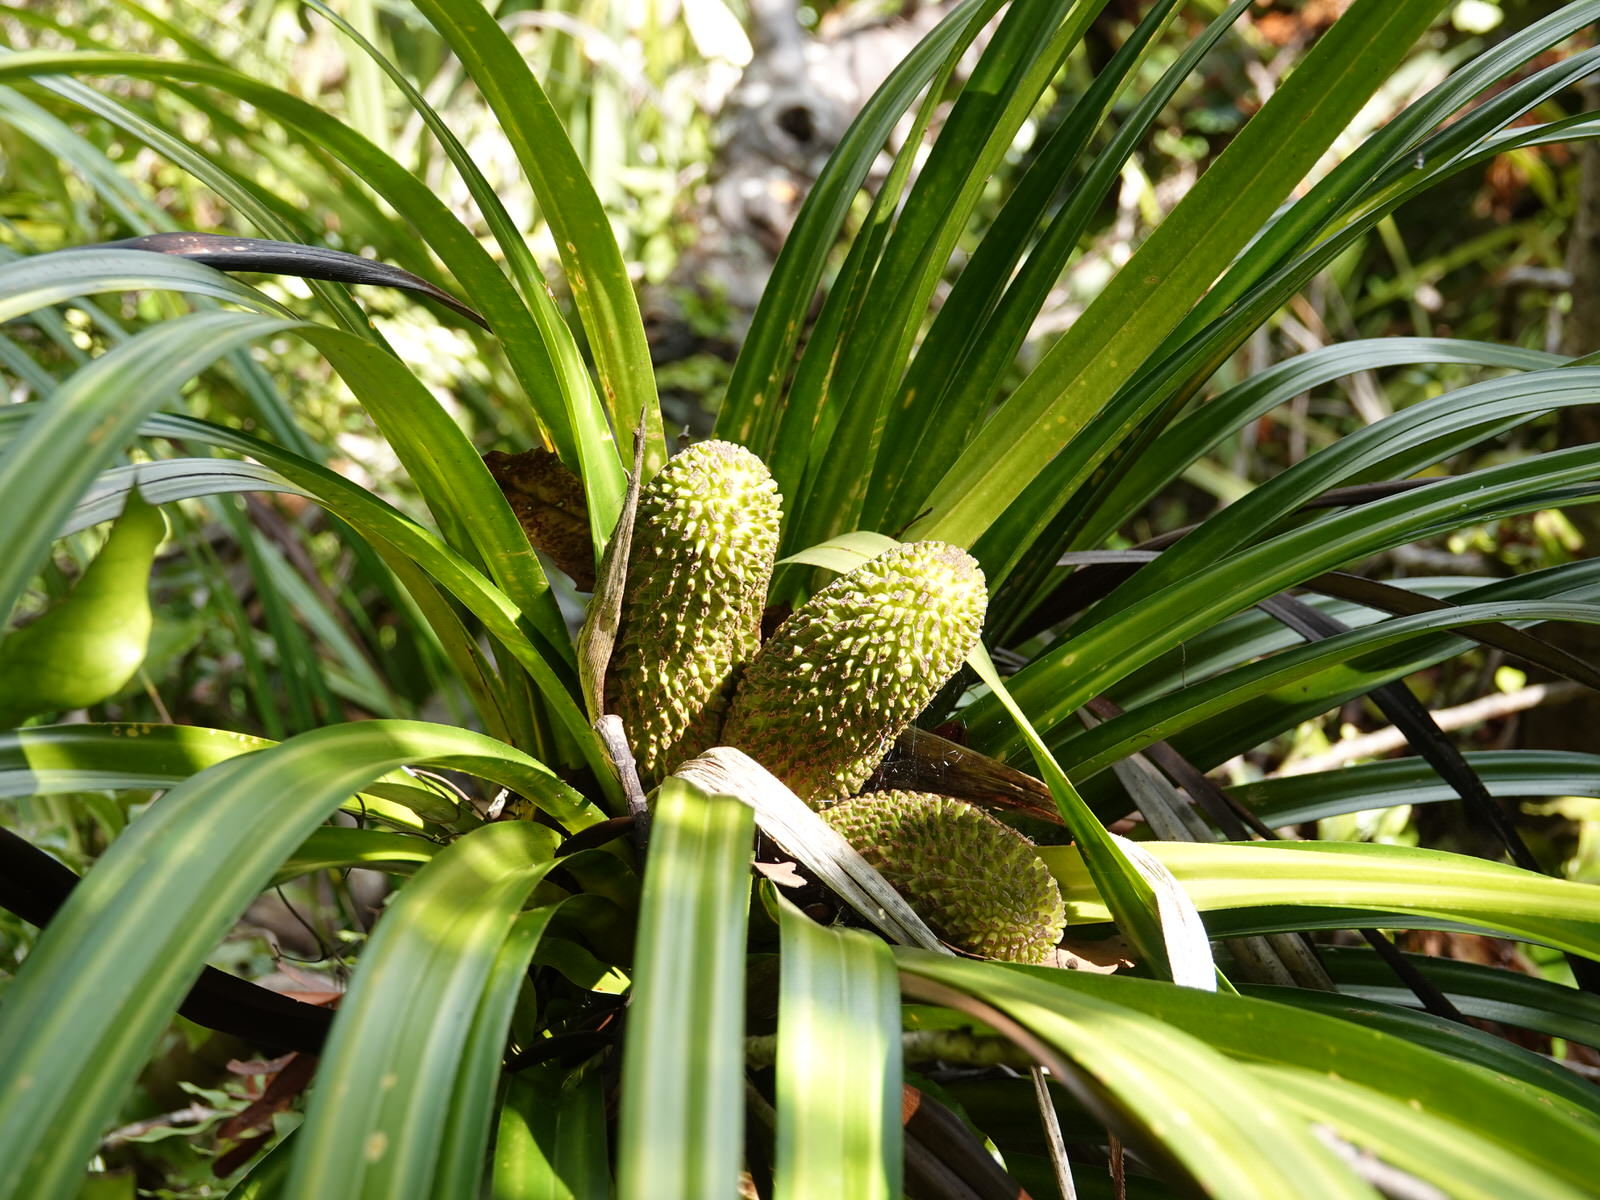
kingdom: Plantae
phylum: Tracheophyta
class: Liliopsida
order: Pandanales
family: Pandanaceae
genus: Freycinetia
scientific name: Freycinetia banksii
